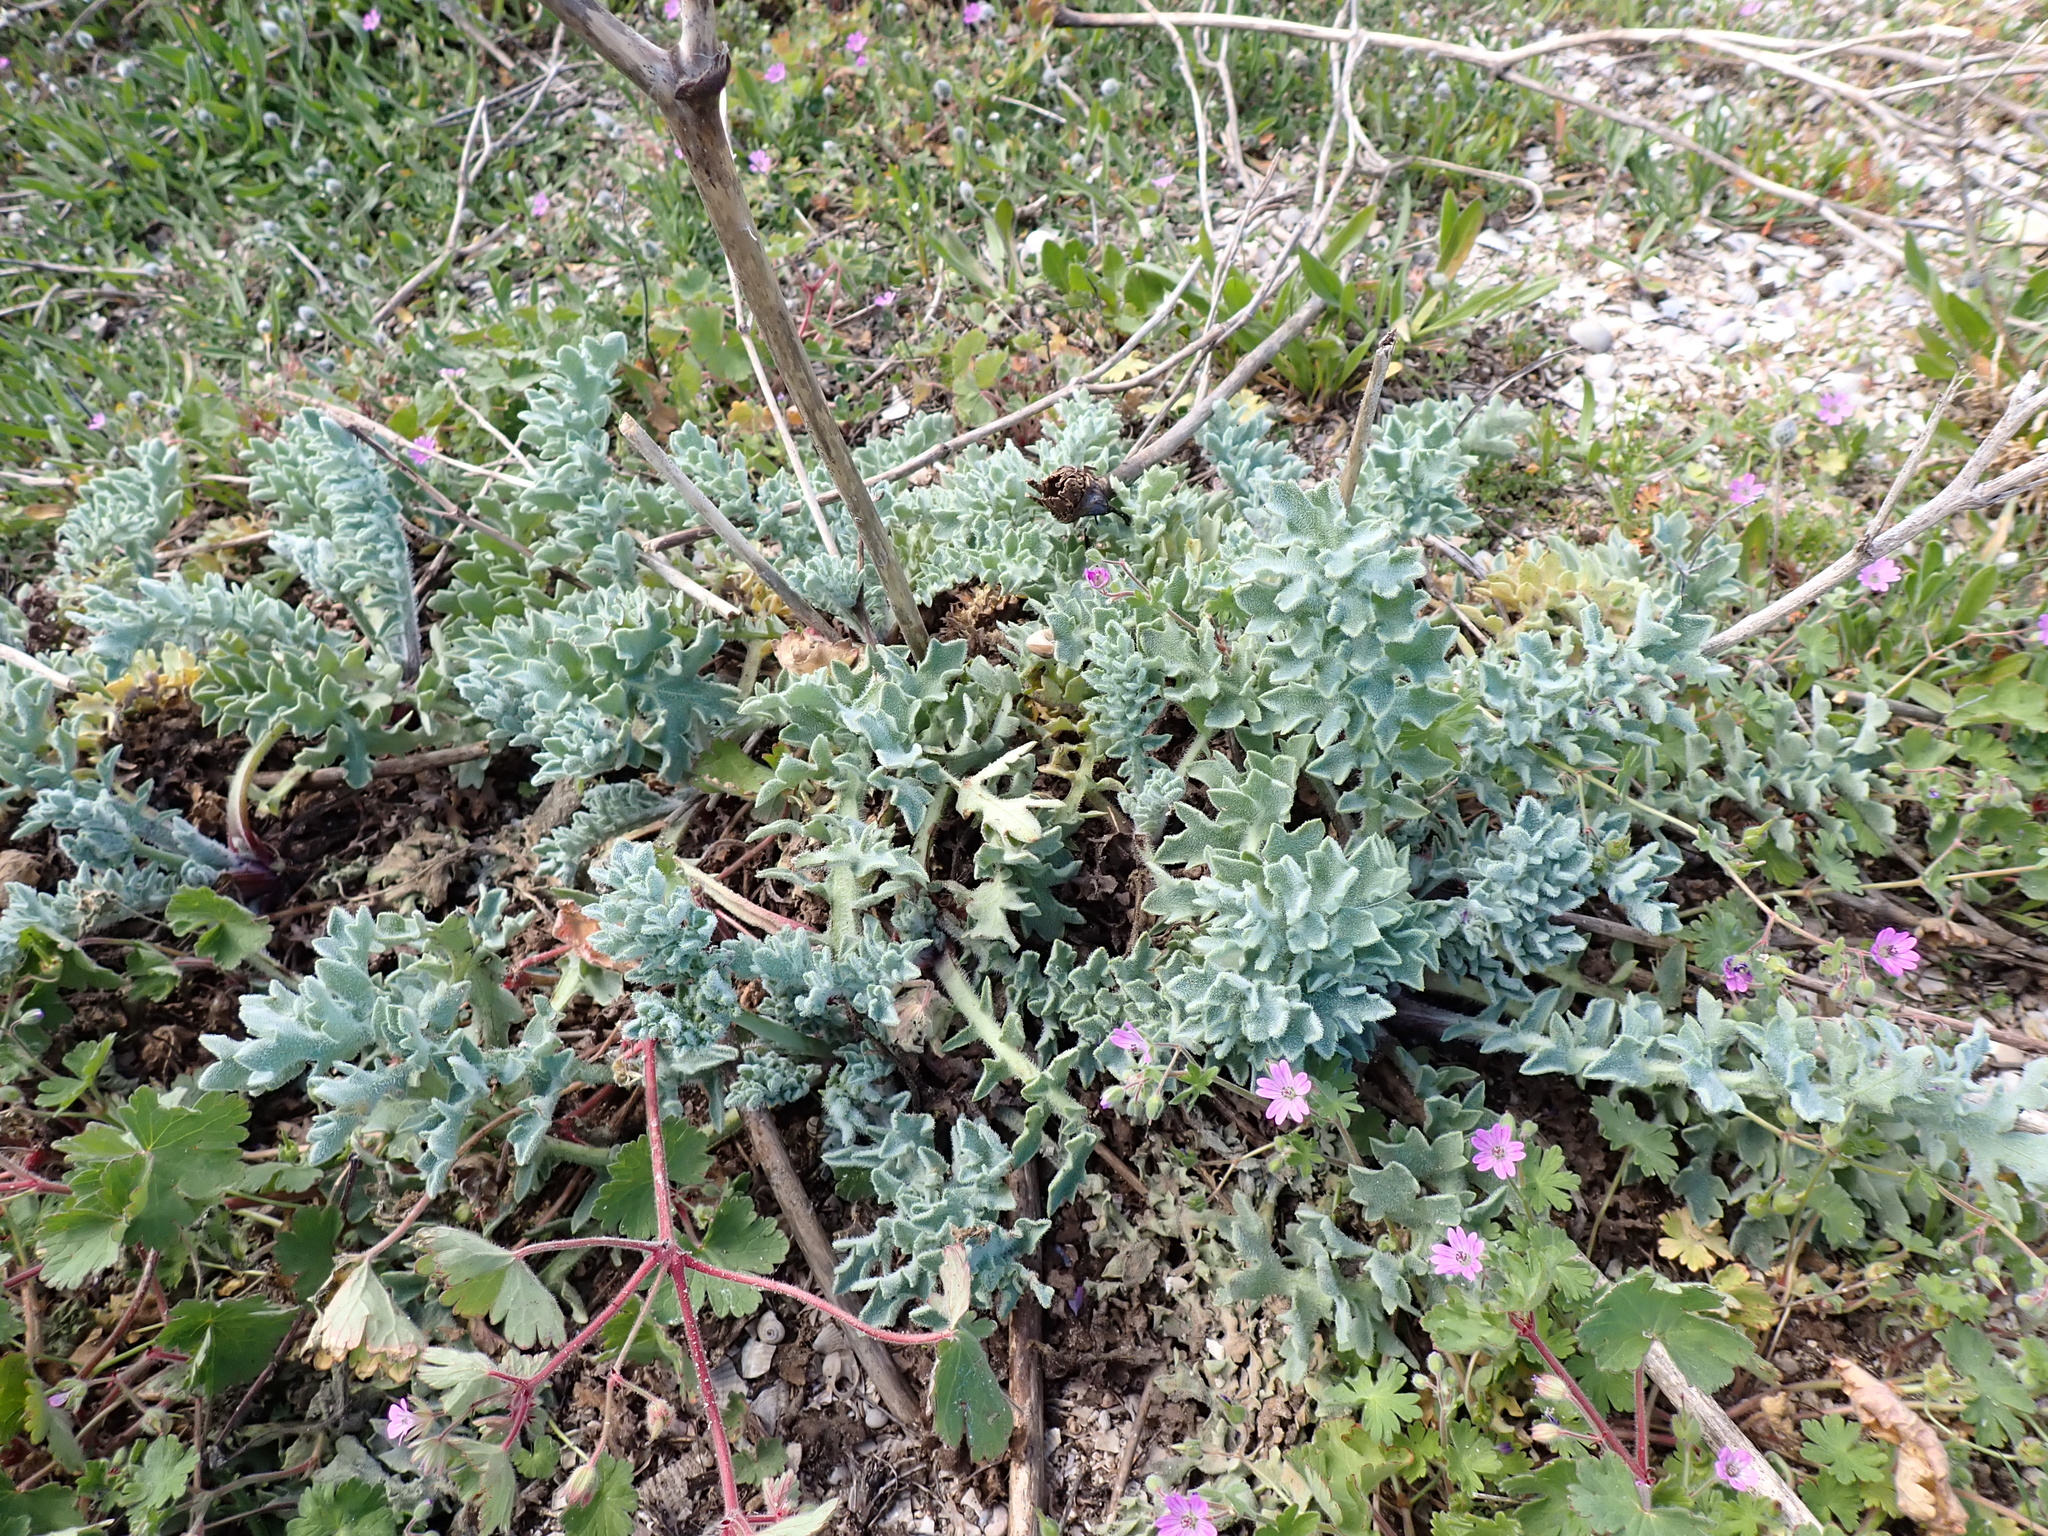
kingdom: Plantae
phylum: Tracheophyta
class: Magnoliopsida
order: Ranunculales
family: Papaveraceae
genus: Glaucium
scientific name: Glaucium flavum
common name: Yellow horned-poppy
